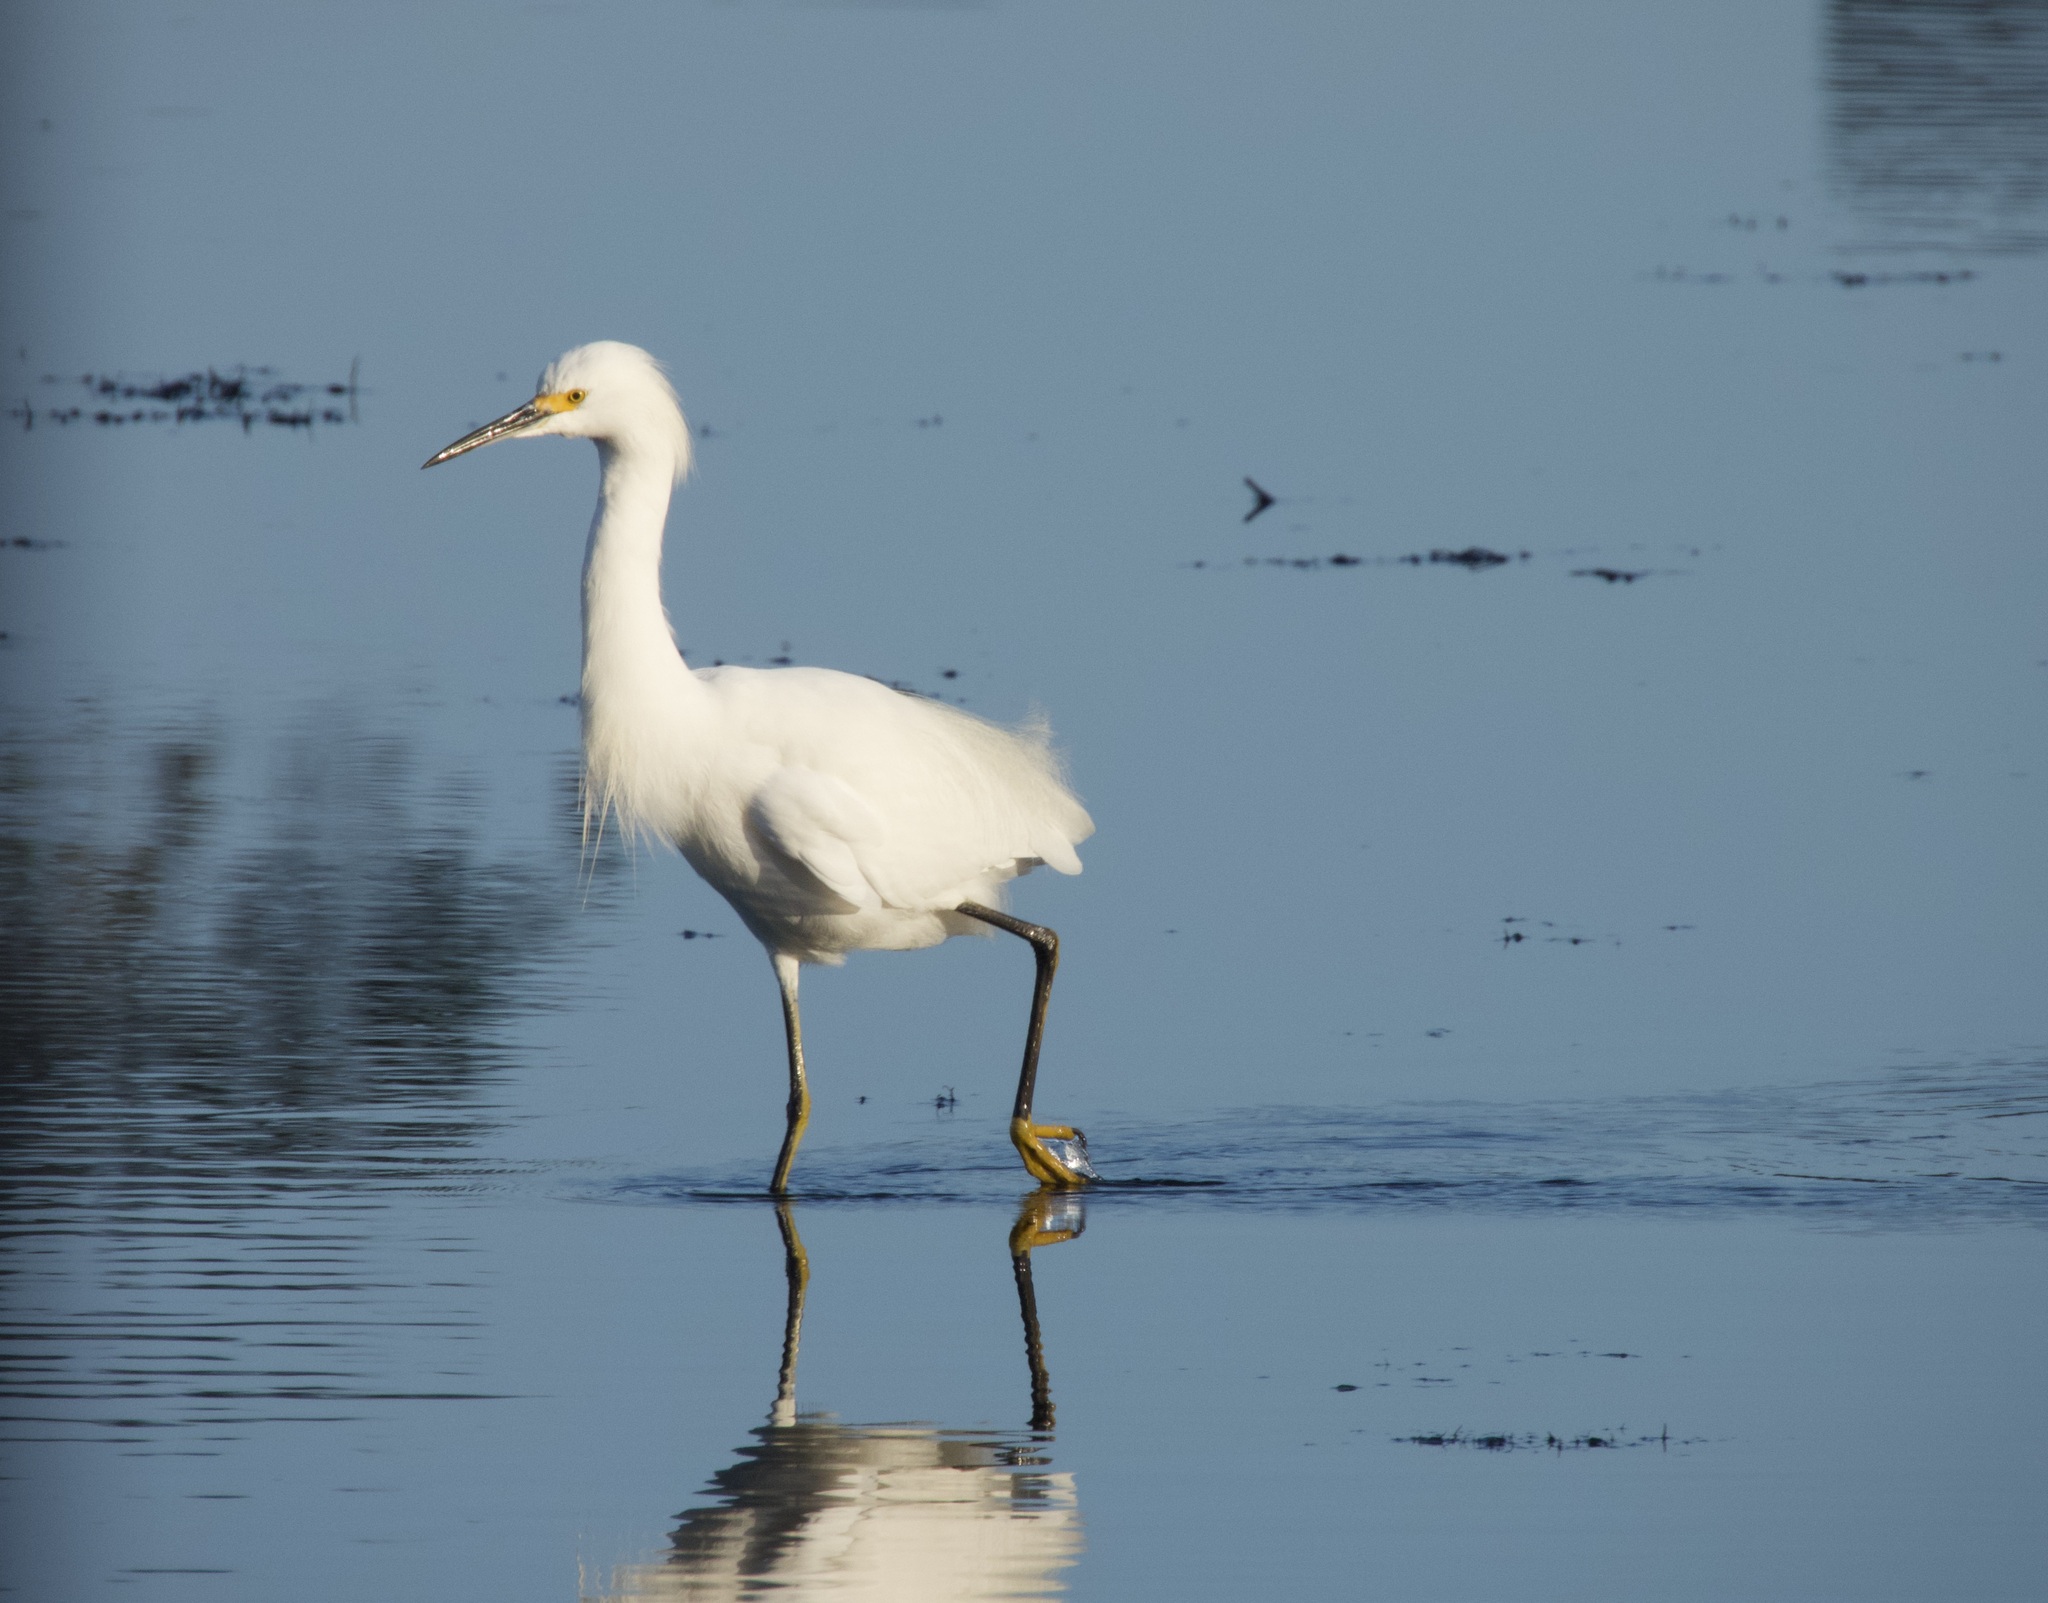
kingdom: Animalia
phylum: Chordata
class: Aves
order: Pelecaniformes
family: Ardeidae
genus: Egretta
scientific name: Egretta thula
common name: Snowy egret
